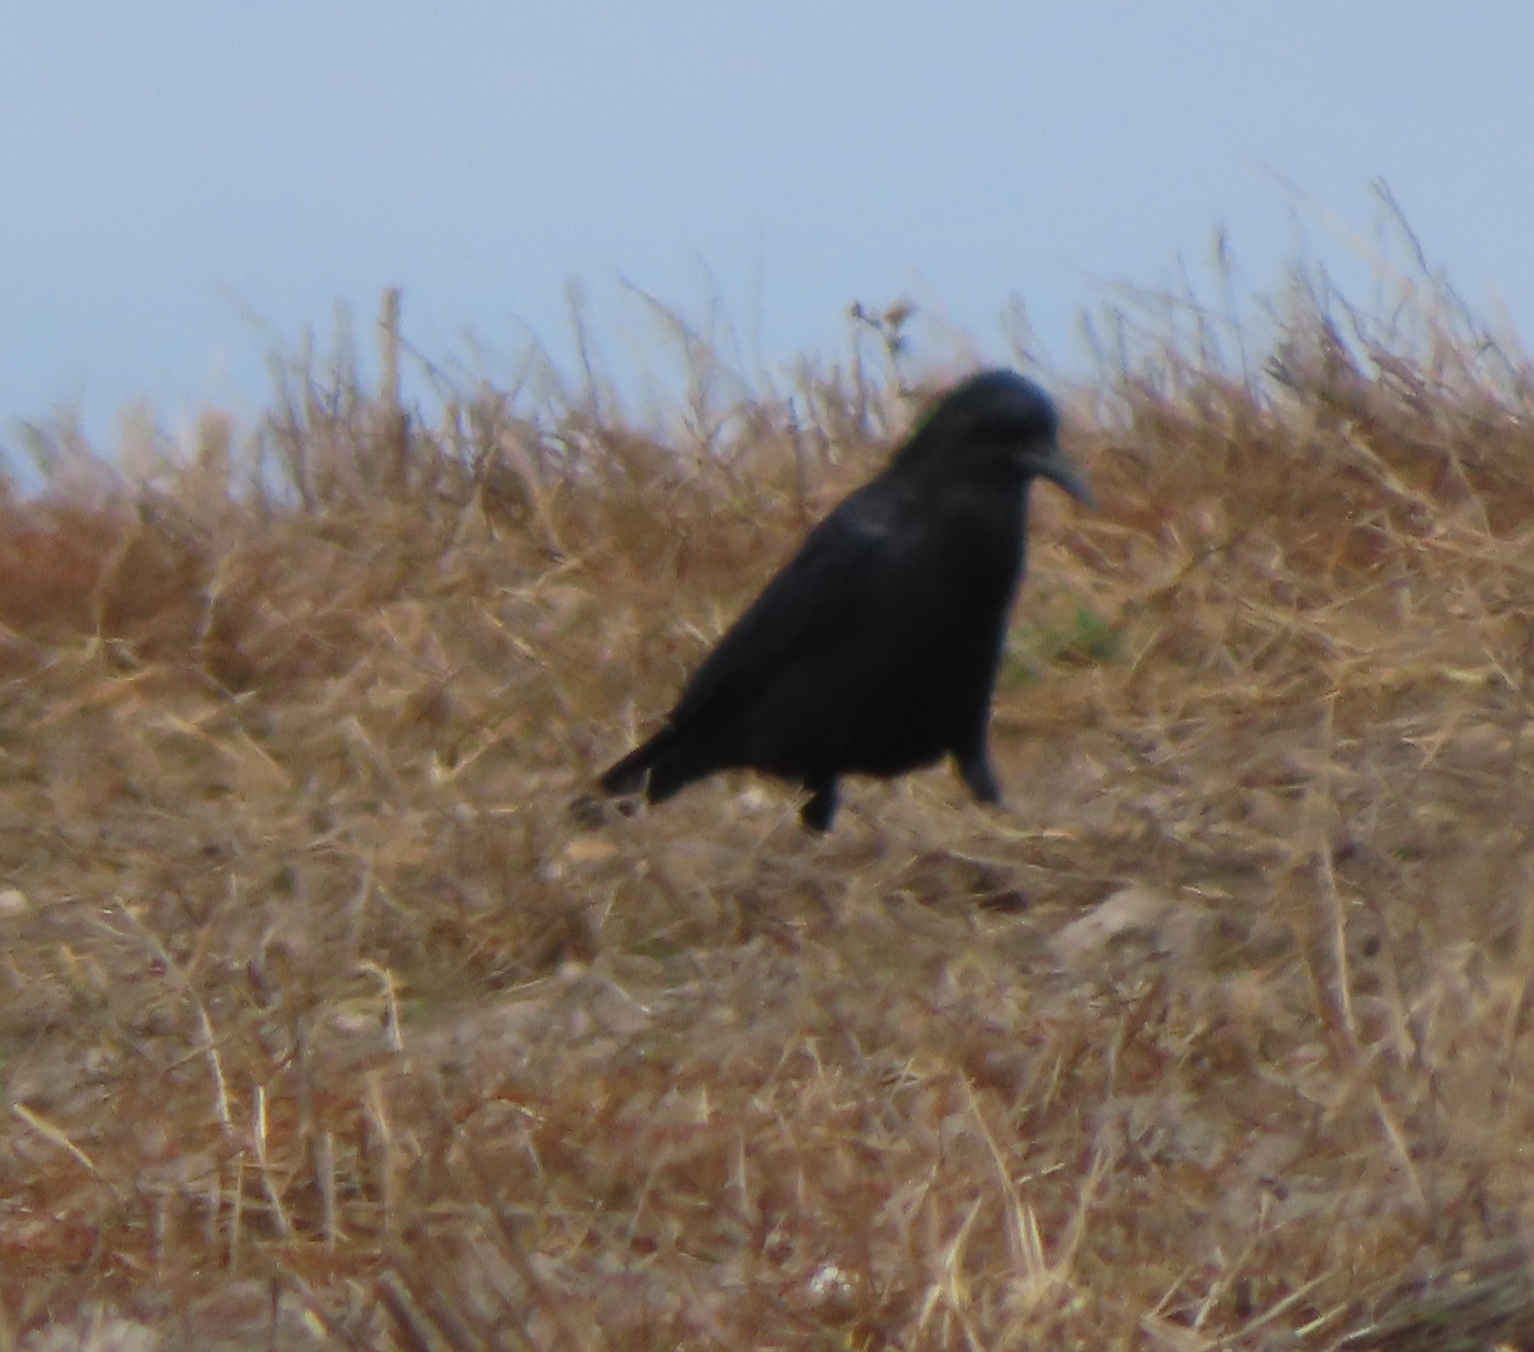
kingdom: Animalia
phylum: Chordata
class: Aves
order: Passeriformes
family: Corvidae
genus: Corvus
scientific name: Corvus capensis
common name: Cape crow
